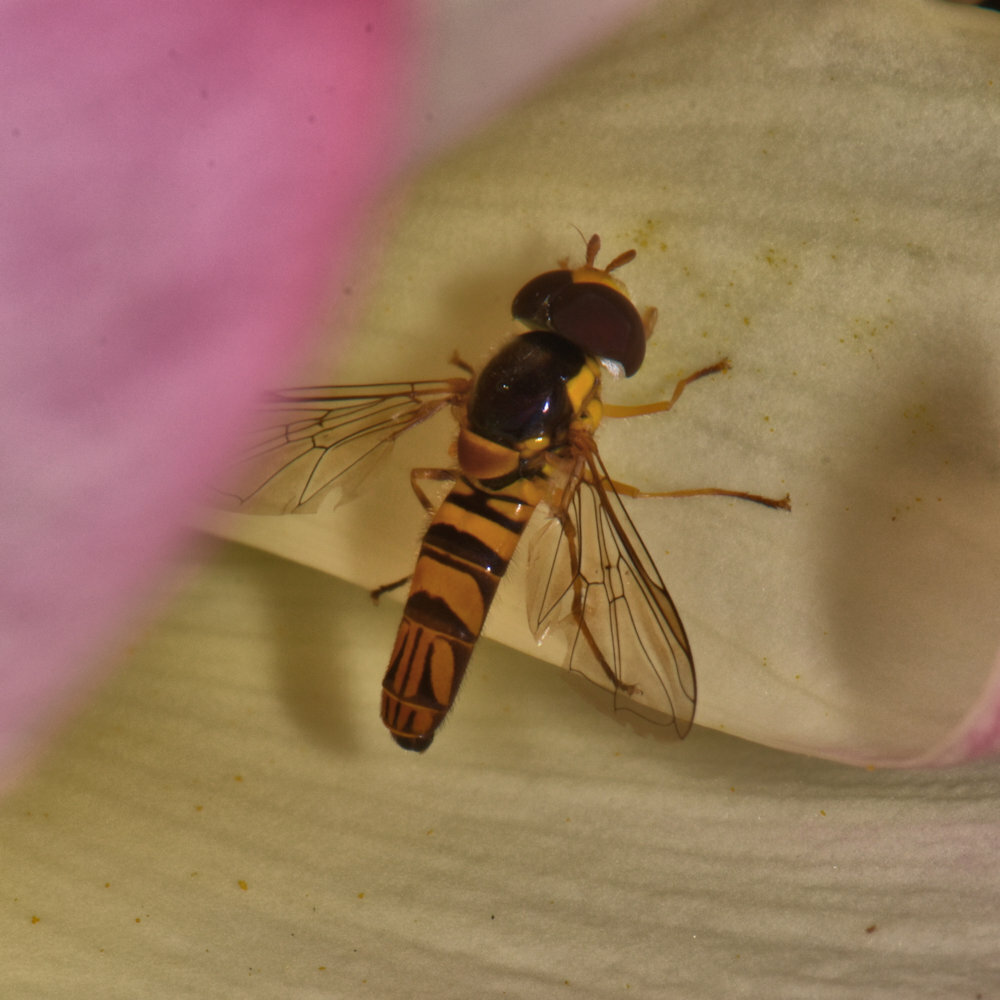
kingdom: Animalia
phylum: Arthropoda
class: Insecta
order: Diptera
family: Syrphidae
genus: Allograpta
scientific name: Allograpta obliqua
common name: Common oblique syrphid
